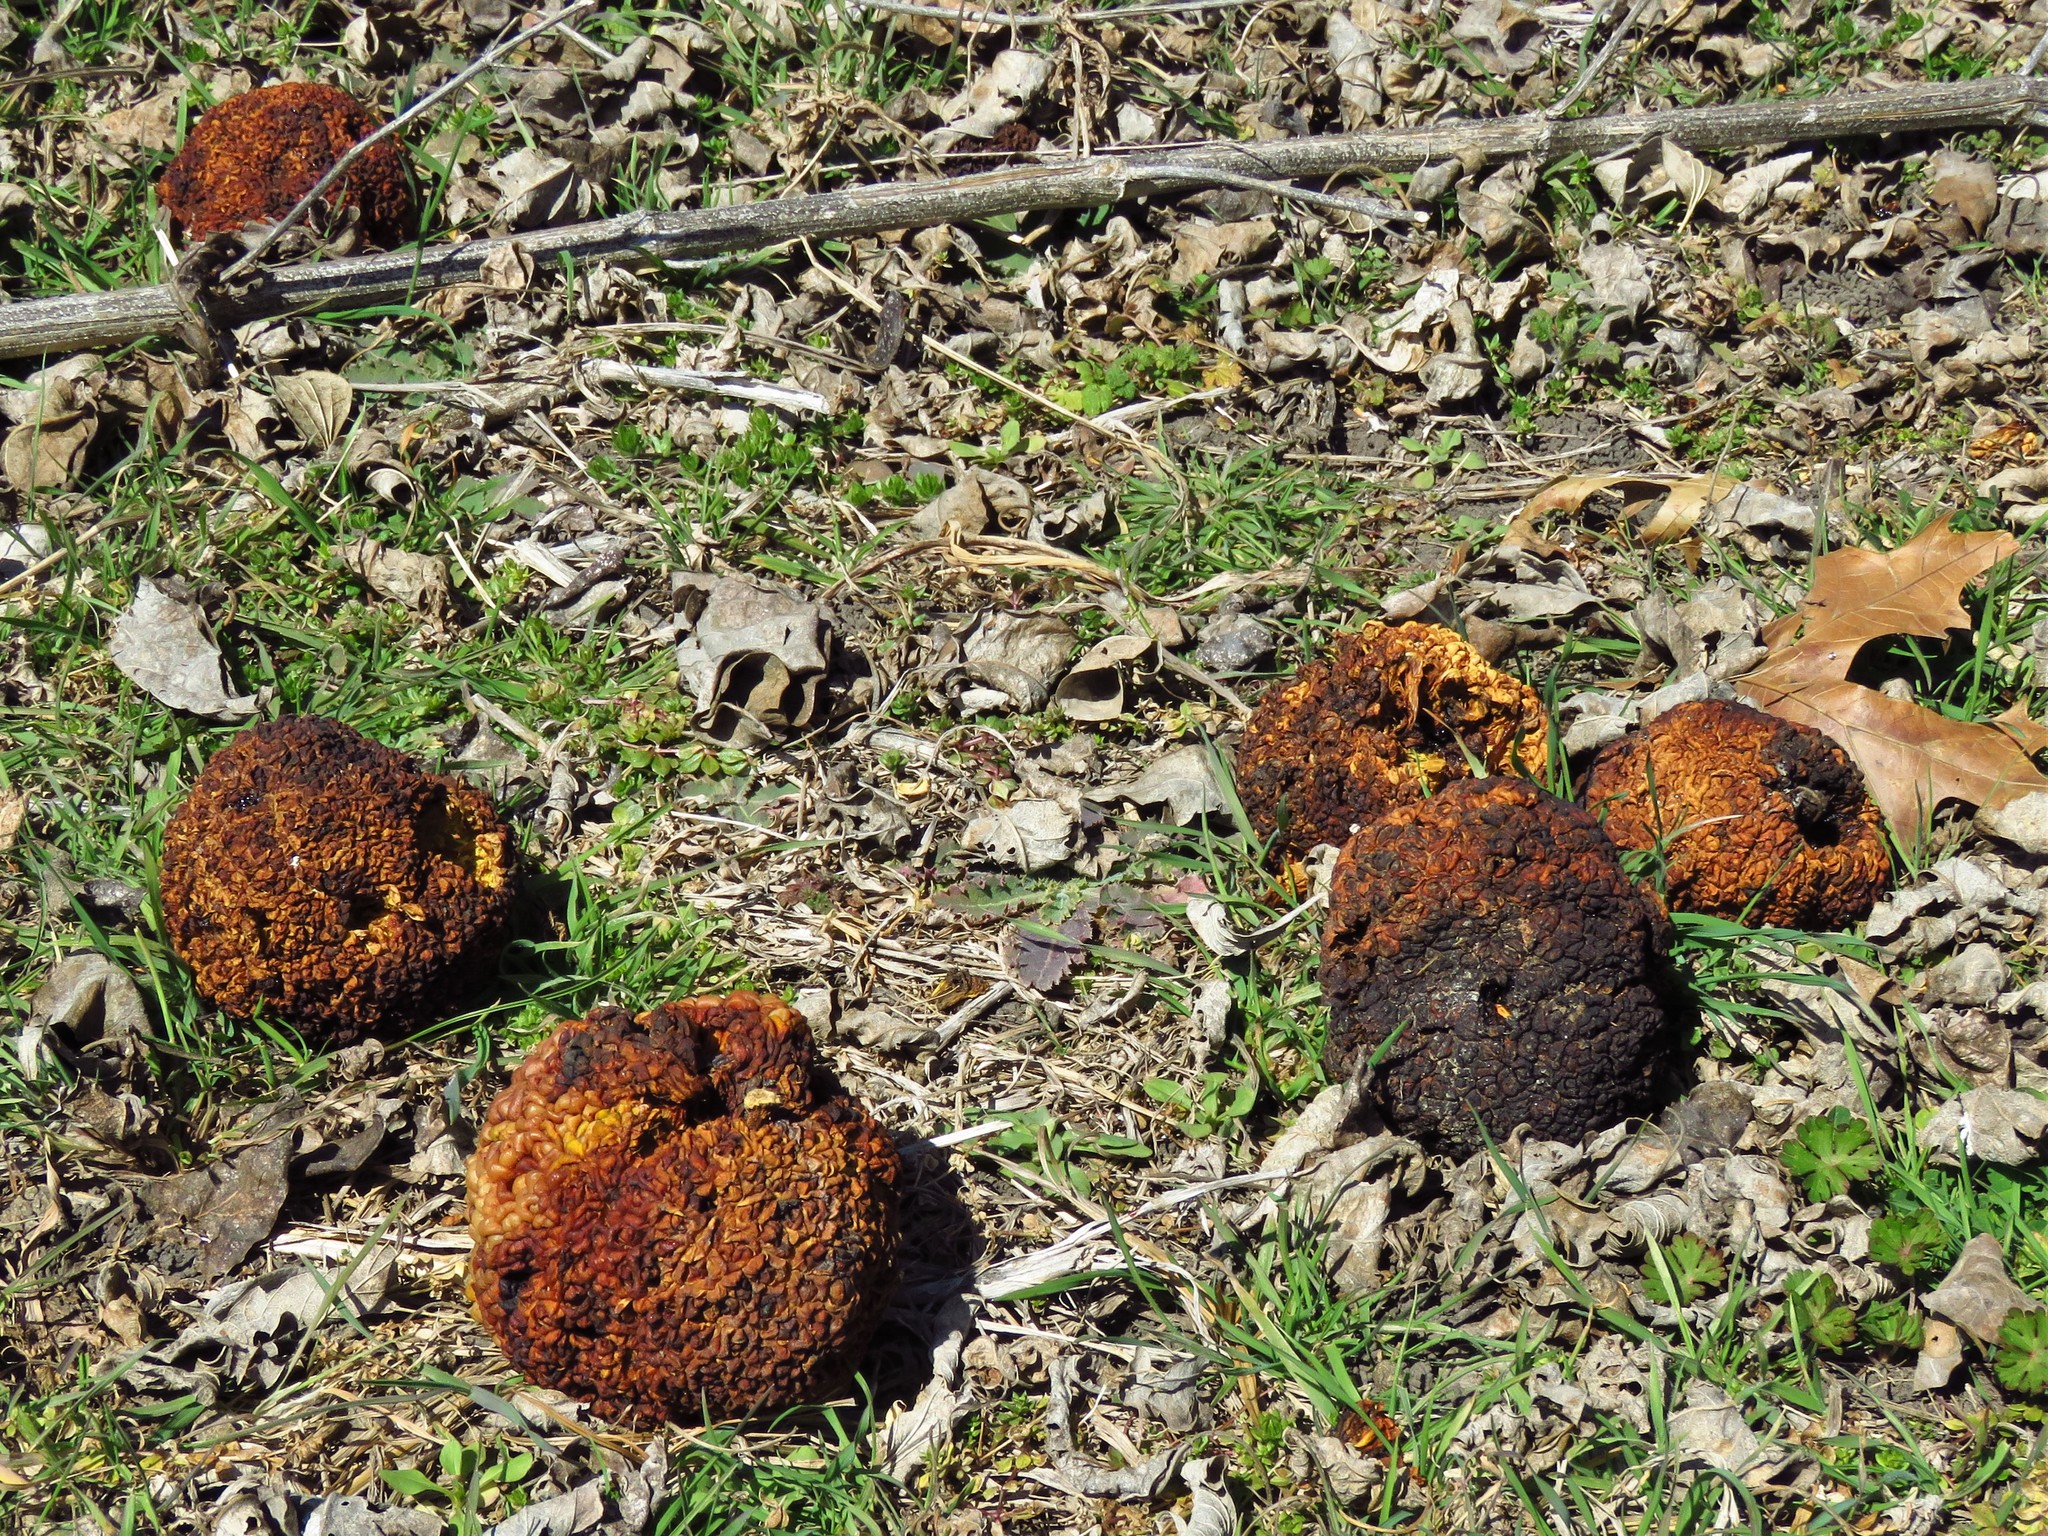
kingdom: Plantae
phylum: Tracheophyta
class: Magnoliopsida
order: Rosales
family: Moraceae
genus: Maclura
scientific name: Maclura pomifera
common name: Osage-orange
